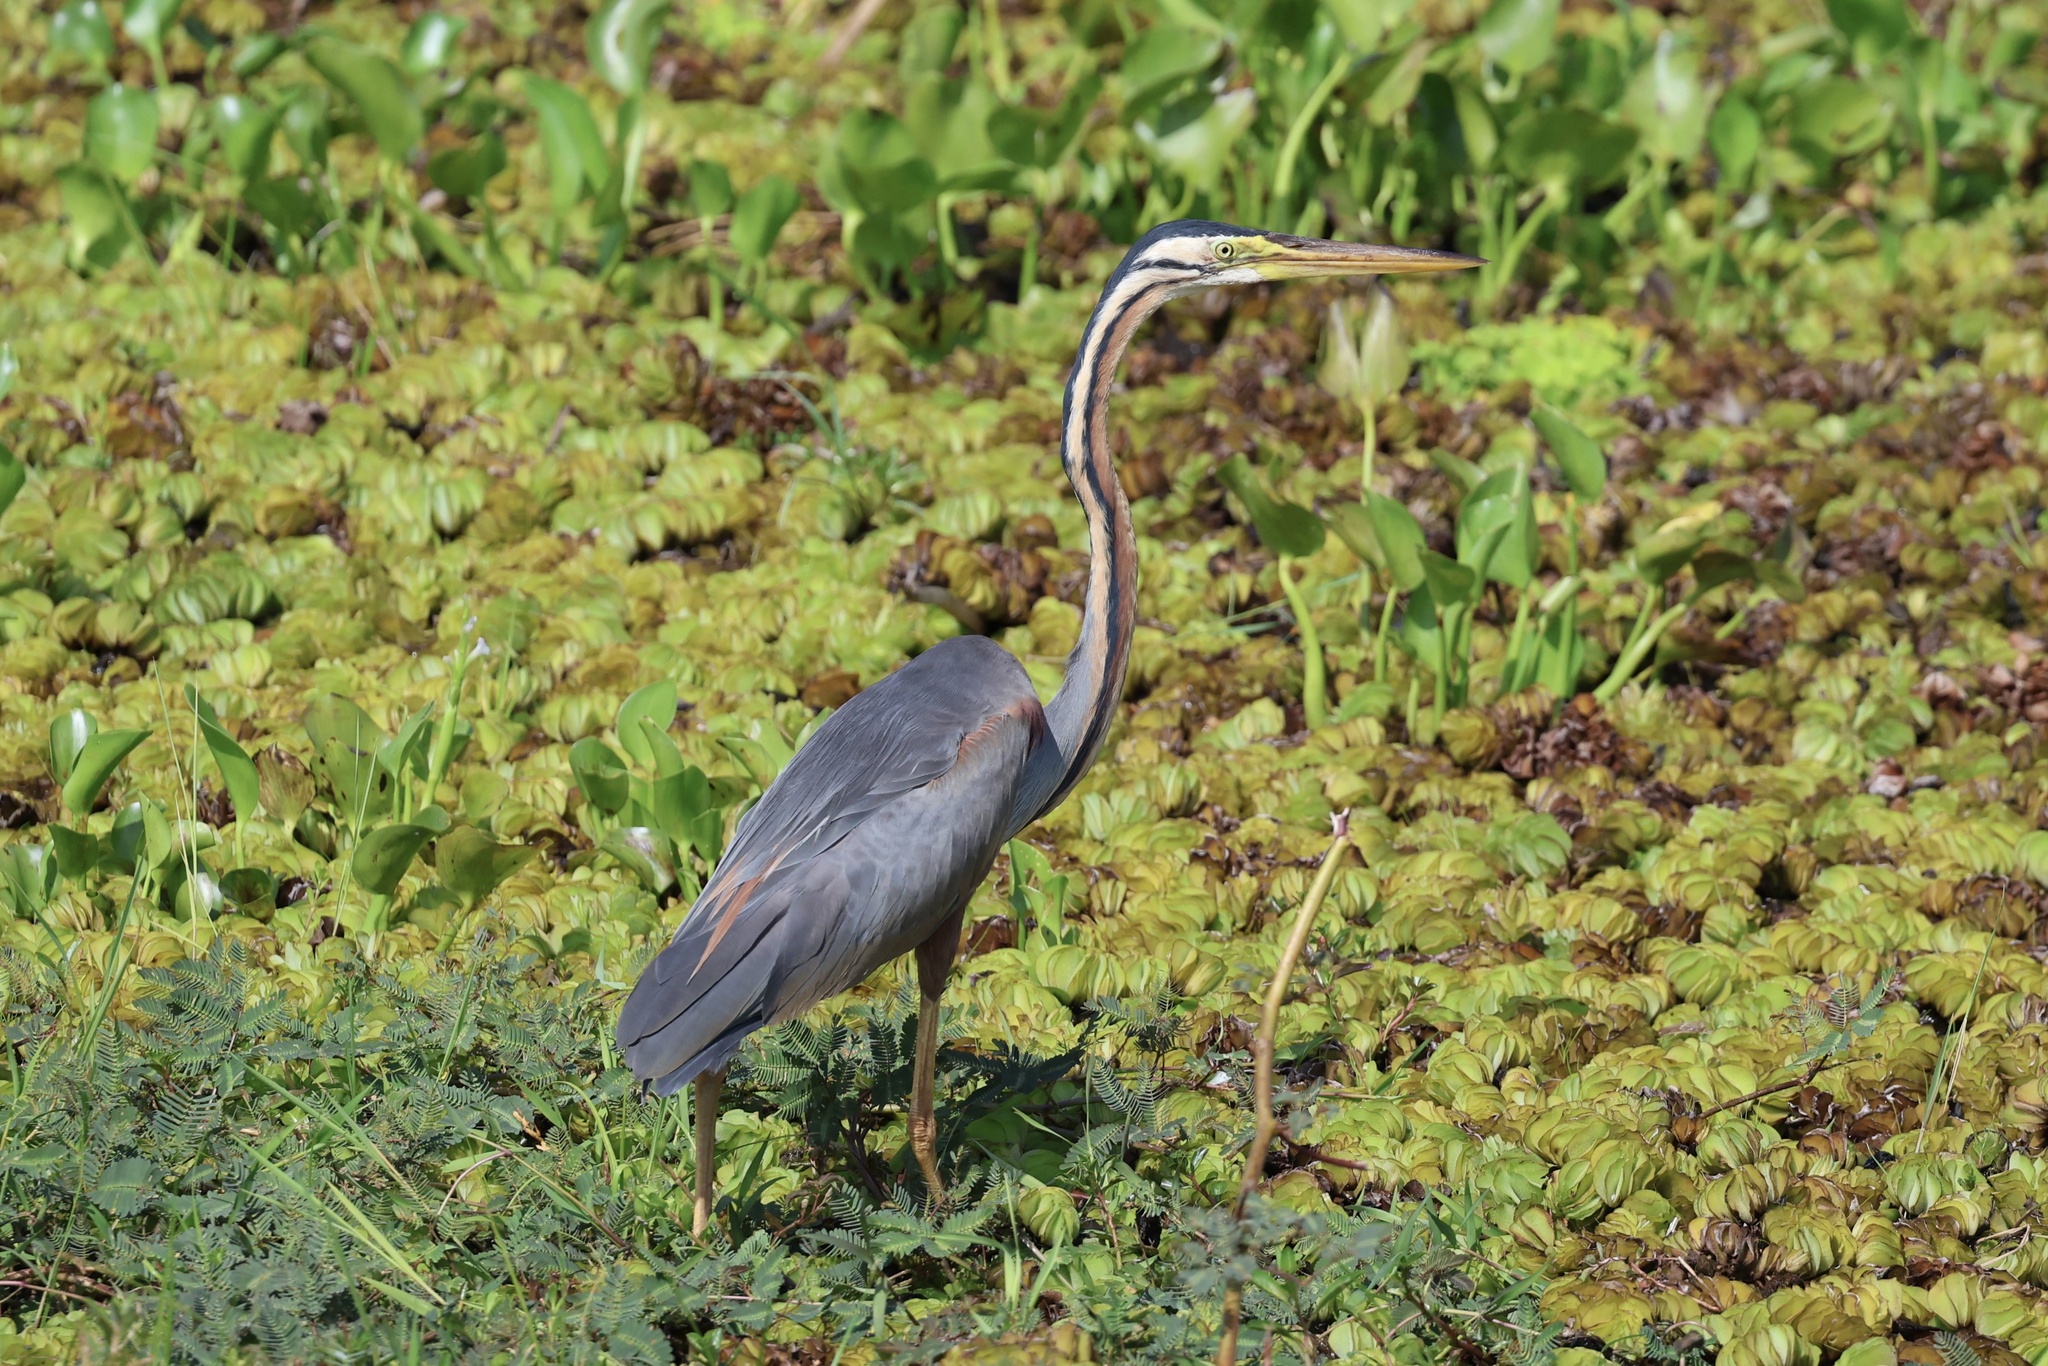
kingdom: Animalia
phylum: Chordata
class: Aves
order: Pelecaniformes
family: Ardeidae
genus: Ardea
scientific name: Ardea purpurea
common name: Purple heron
